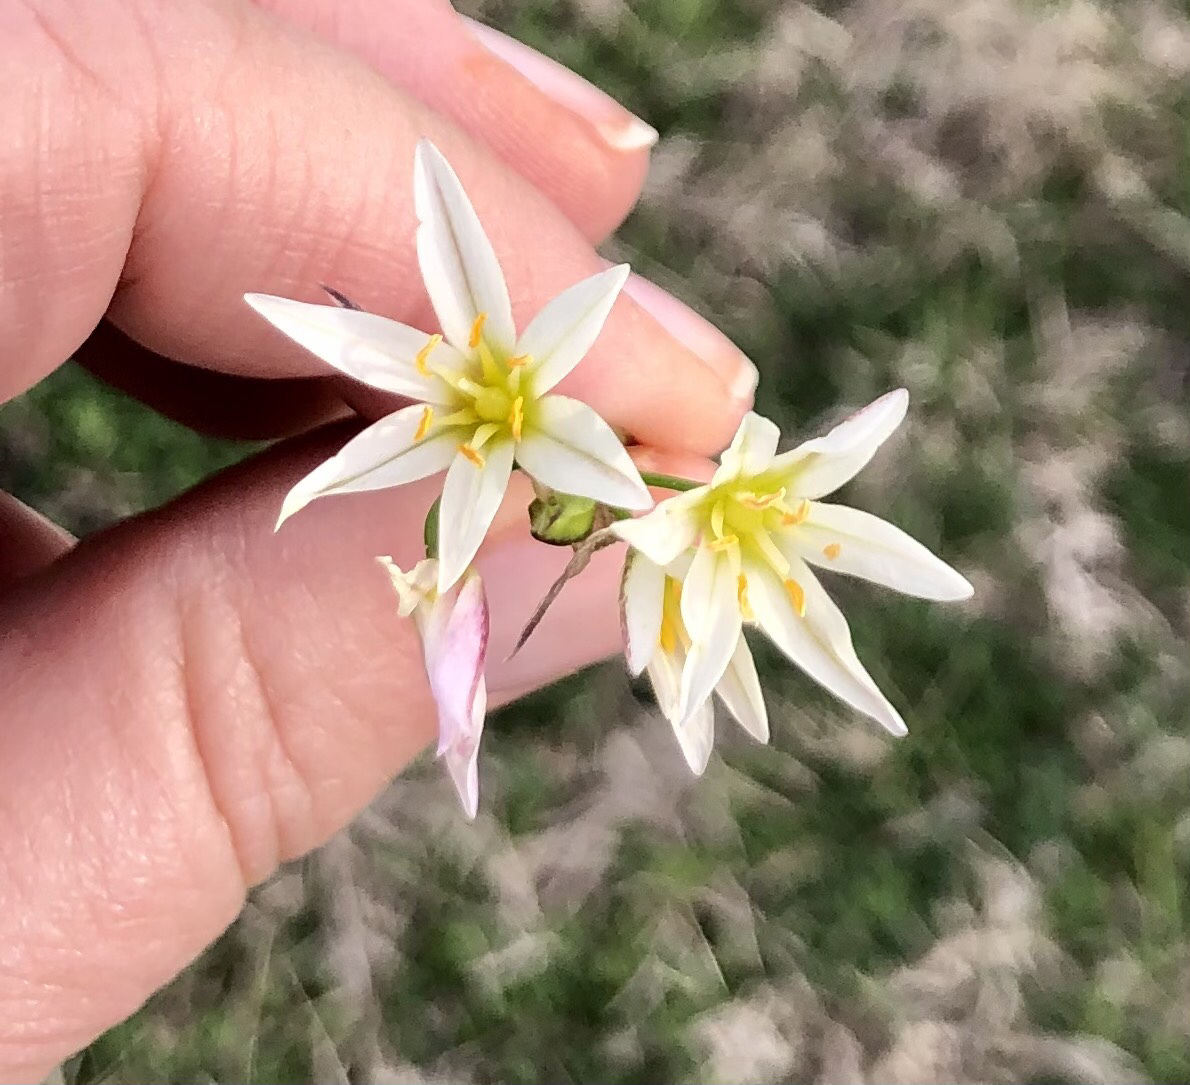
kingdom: Plantae
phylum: Tracheophyta
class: Liliopsida
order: Asparagales
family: Amaryllidaceae
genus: Nothoscordum
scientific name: Nothoscordum bivalve
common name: Crow-poison
